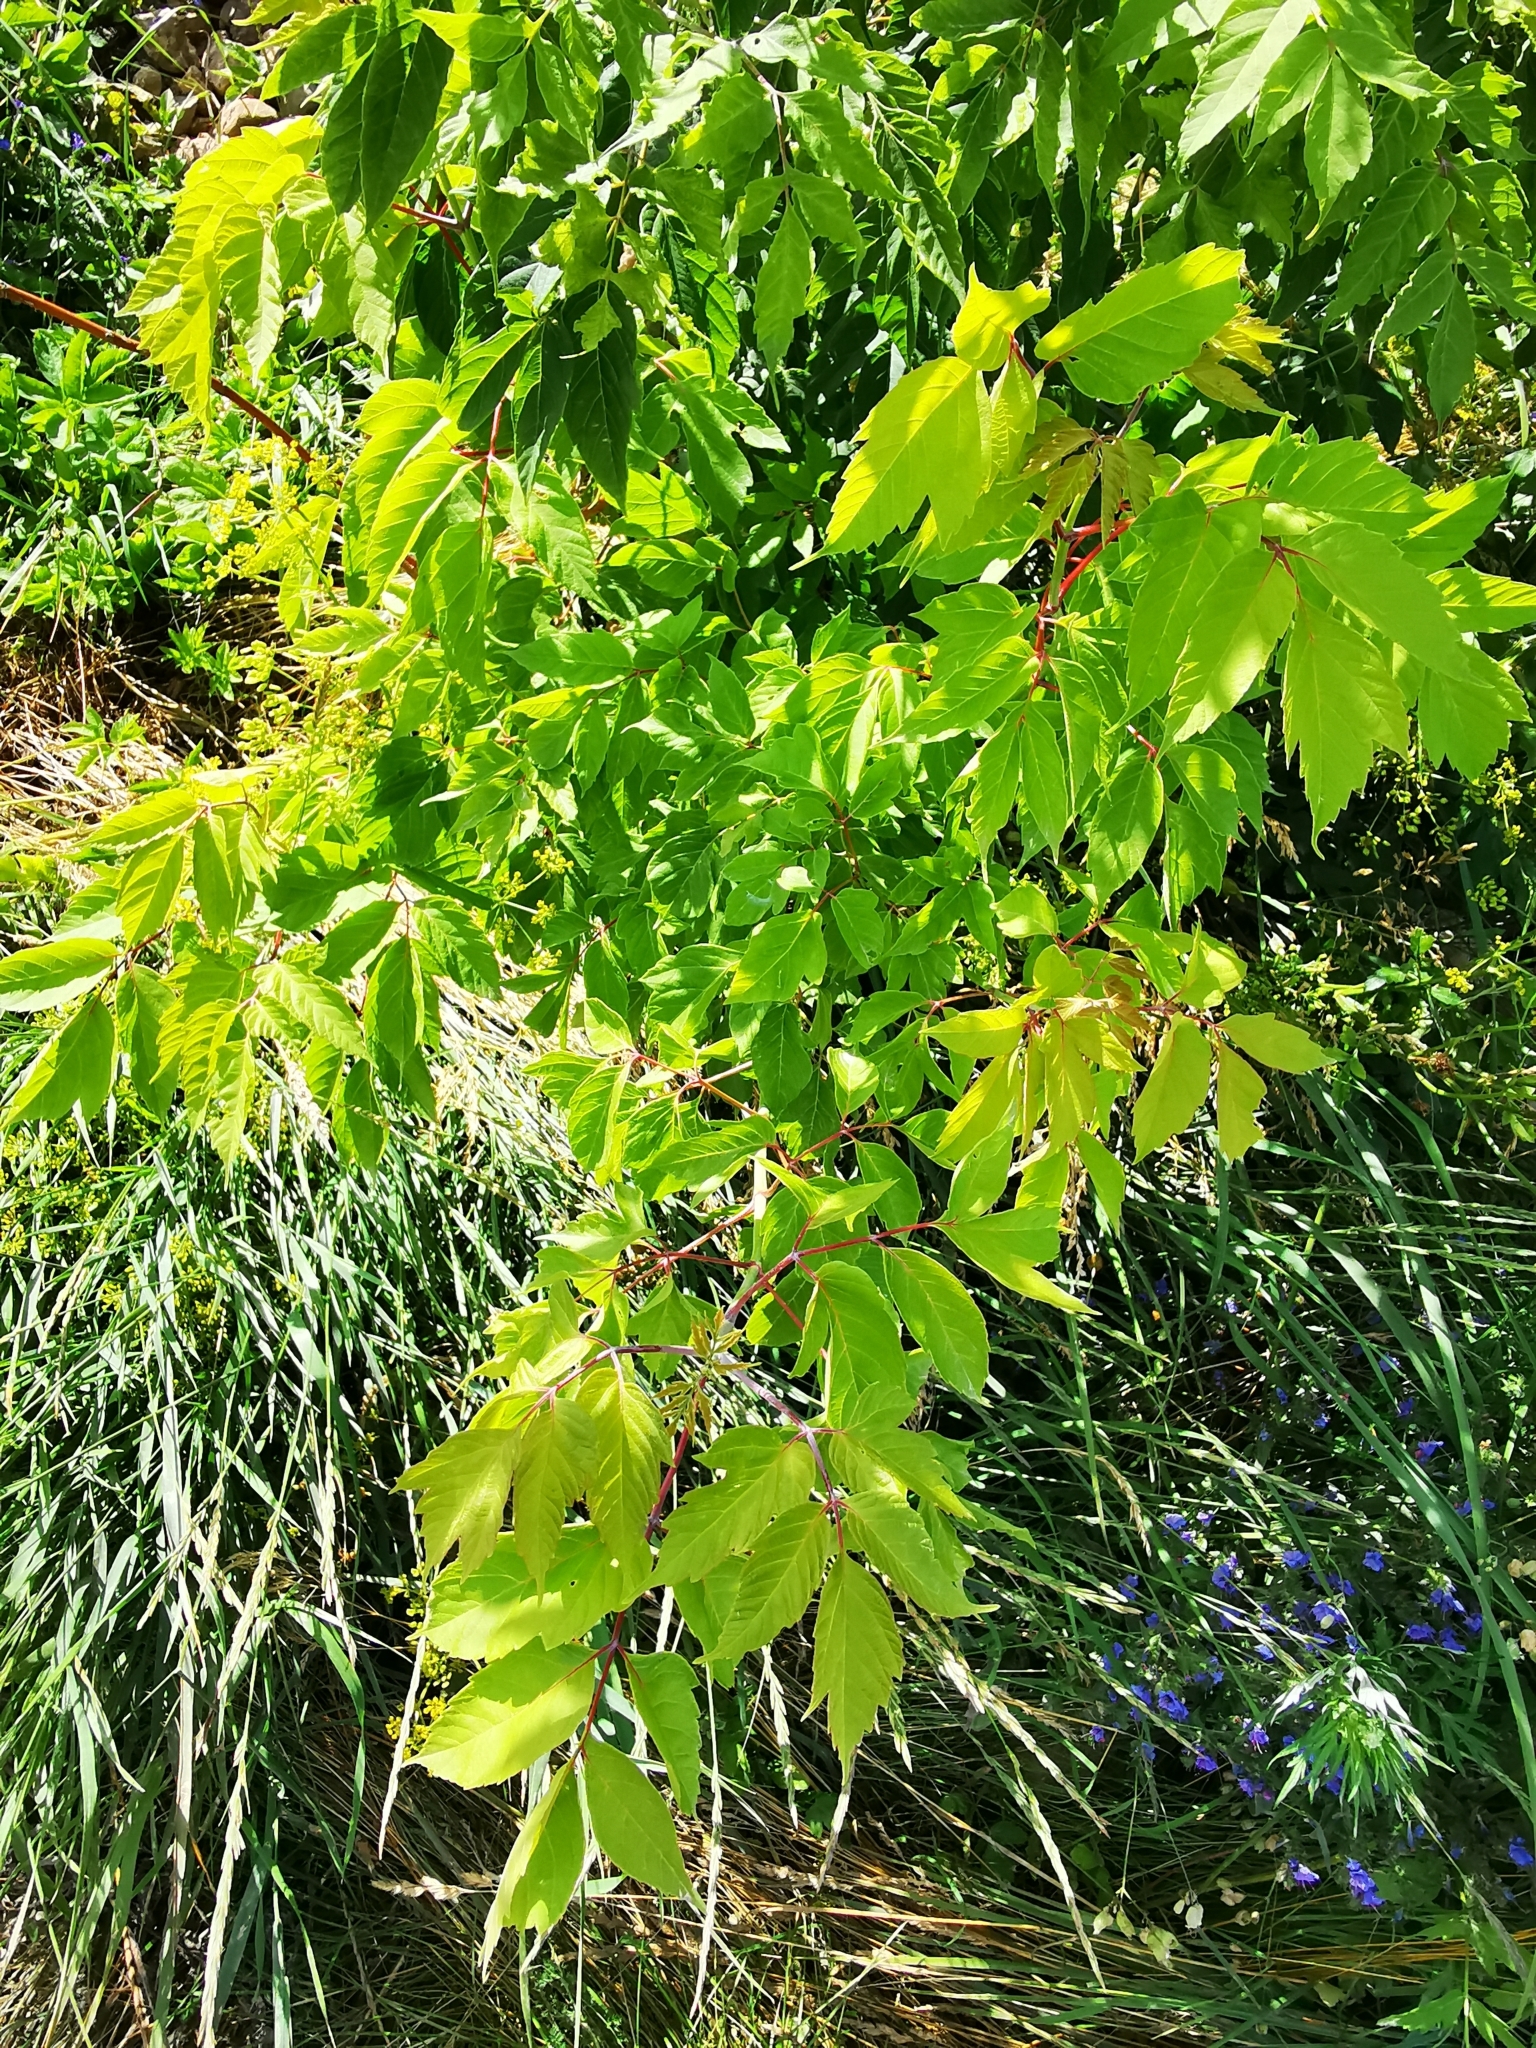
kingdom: Plantae
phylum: Tracheophyta
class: Magnoliopsida
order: Sapindales
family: Sapindaceae
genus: Acer
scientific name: Acer negundo
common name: Ashleaf maple
